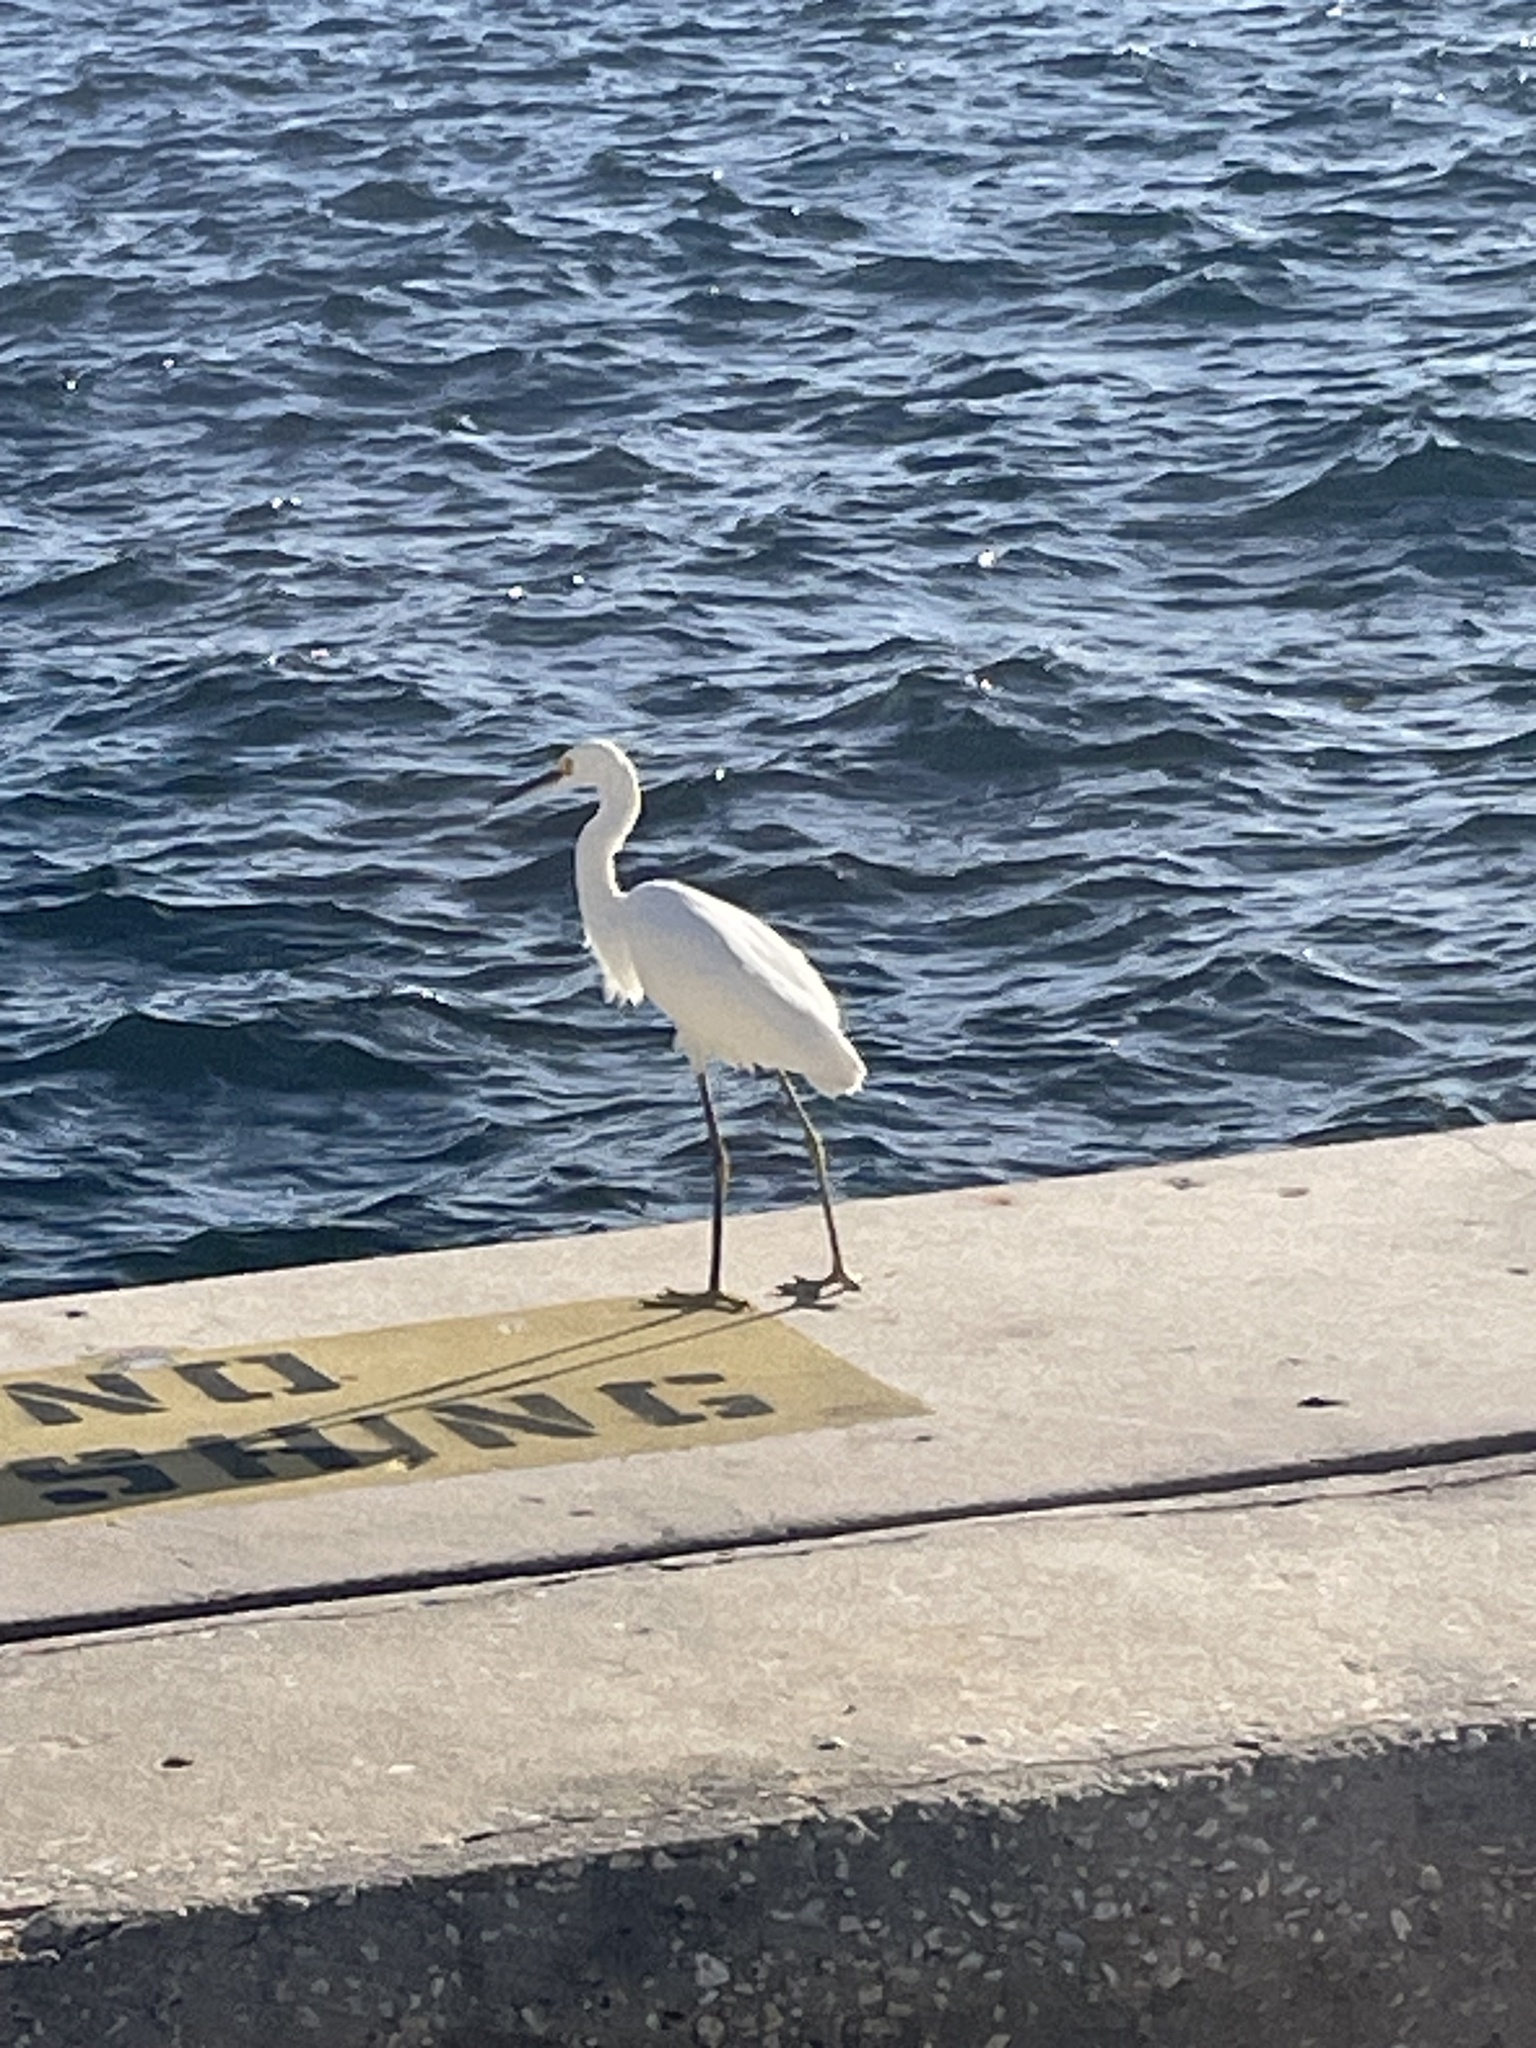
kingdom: Animalia
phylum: Chordata
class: Aves
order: Pelecaniformes
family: Ardeidae
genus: Egretta
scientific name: Egretta thula
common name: Snowy egret
